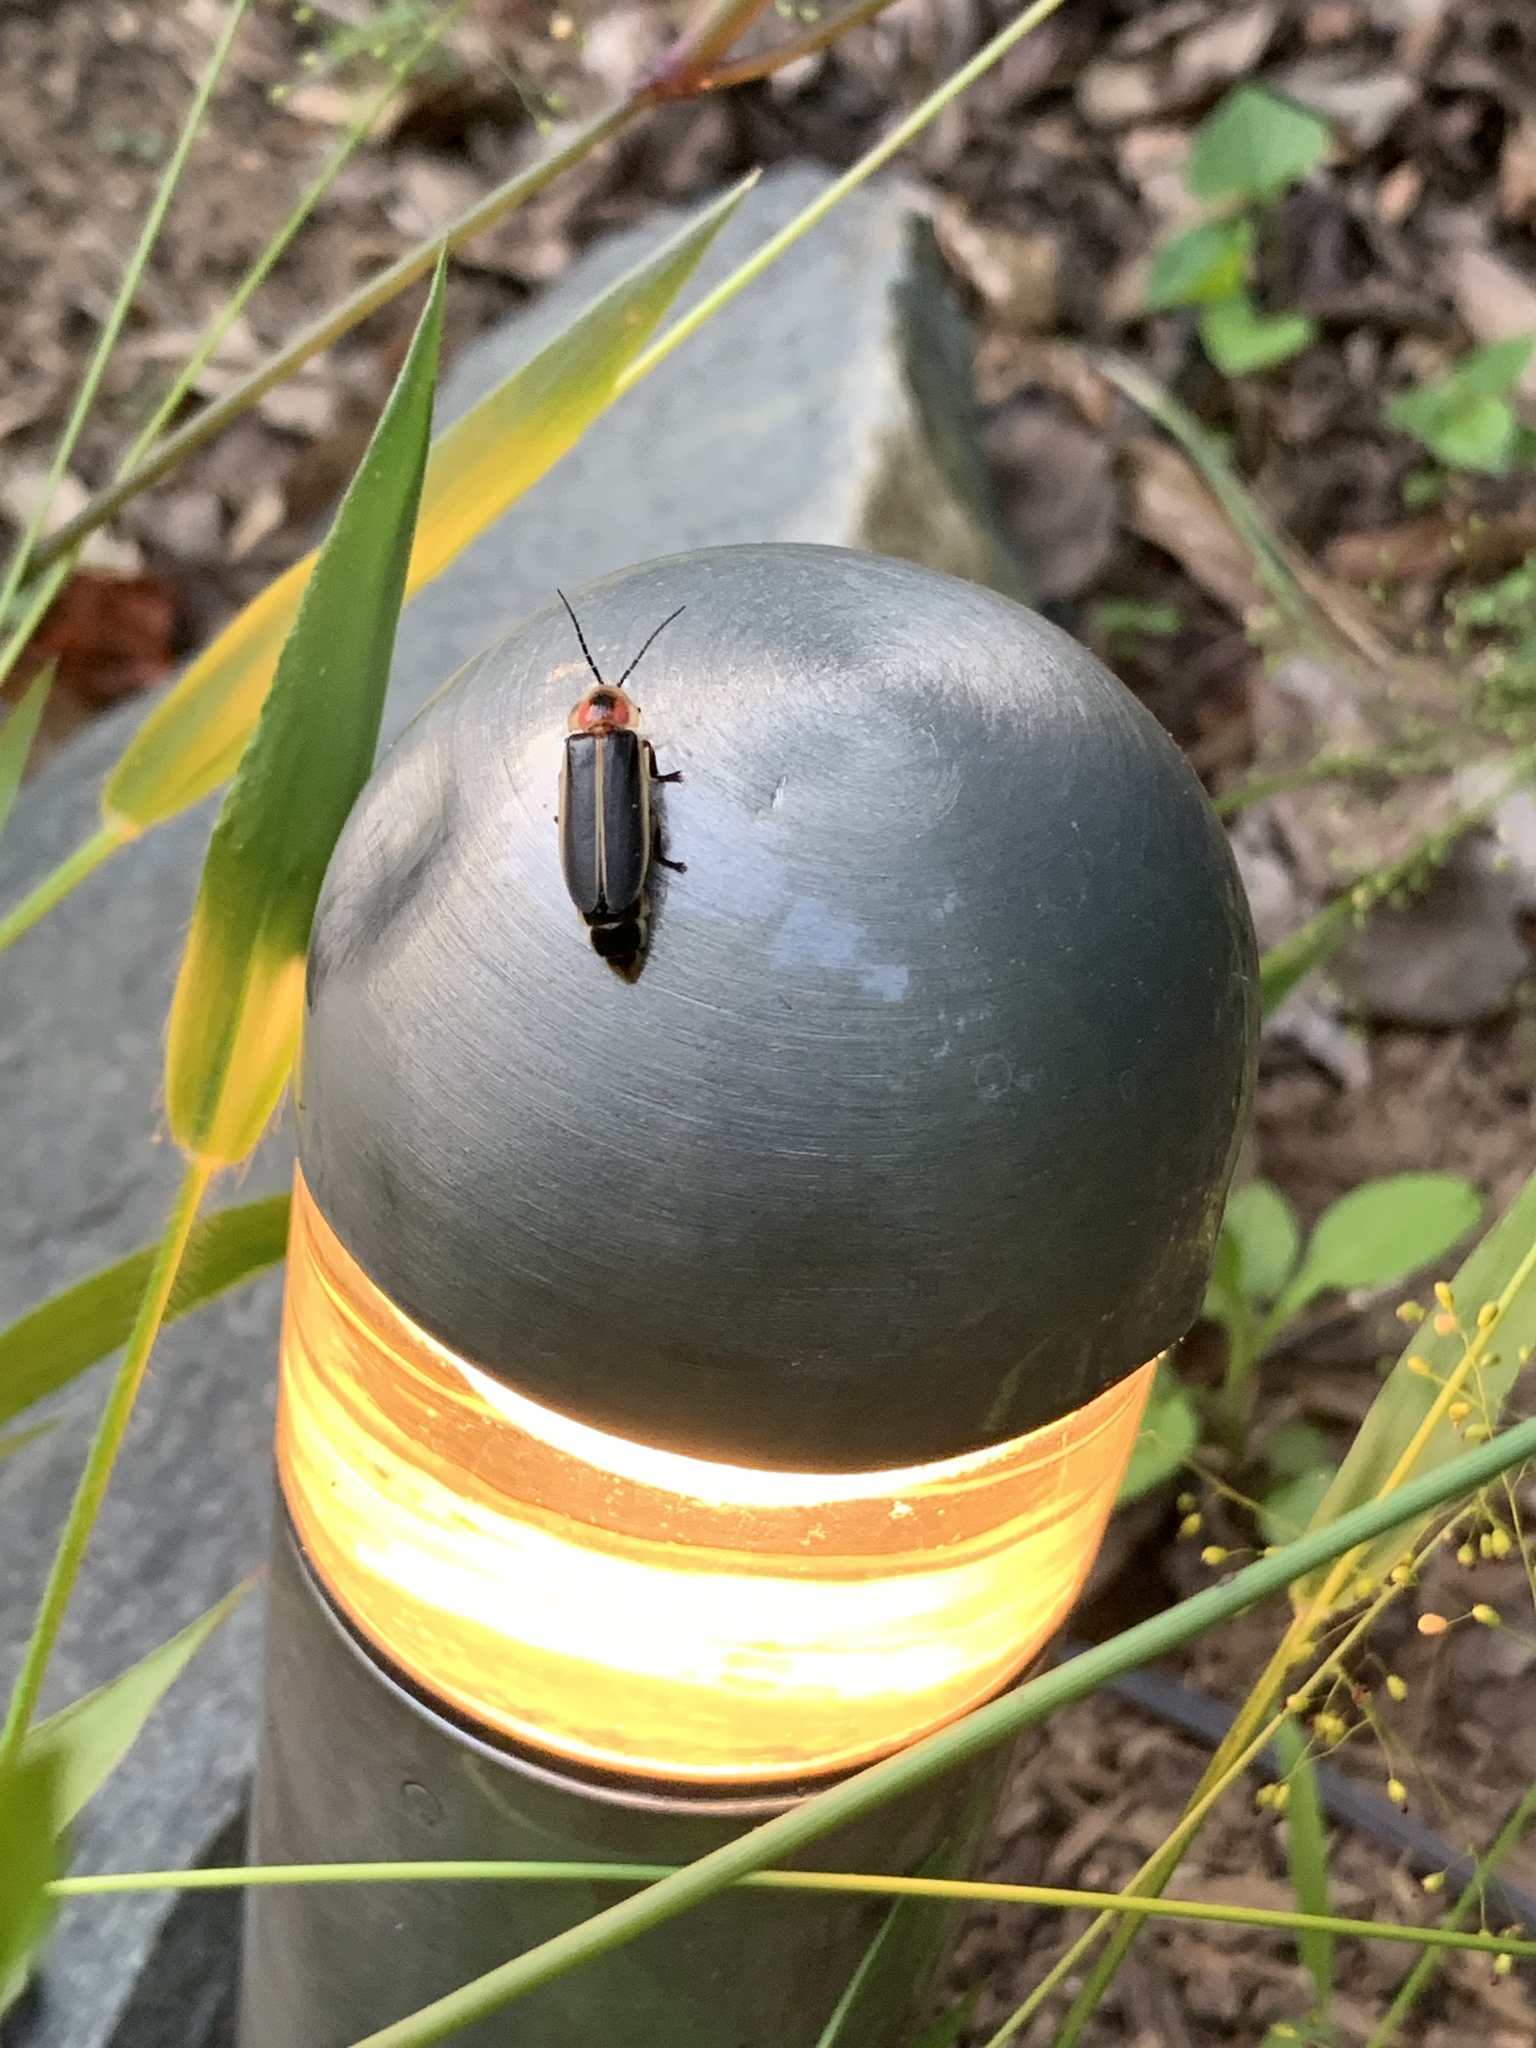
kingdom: Animalia
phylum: Arthropoda
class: Insecta
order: Coleoptera
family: Lampyridae
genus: Photinus
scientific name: Photinus pyralis
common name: Big dipper firefly
